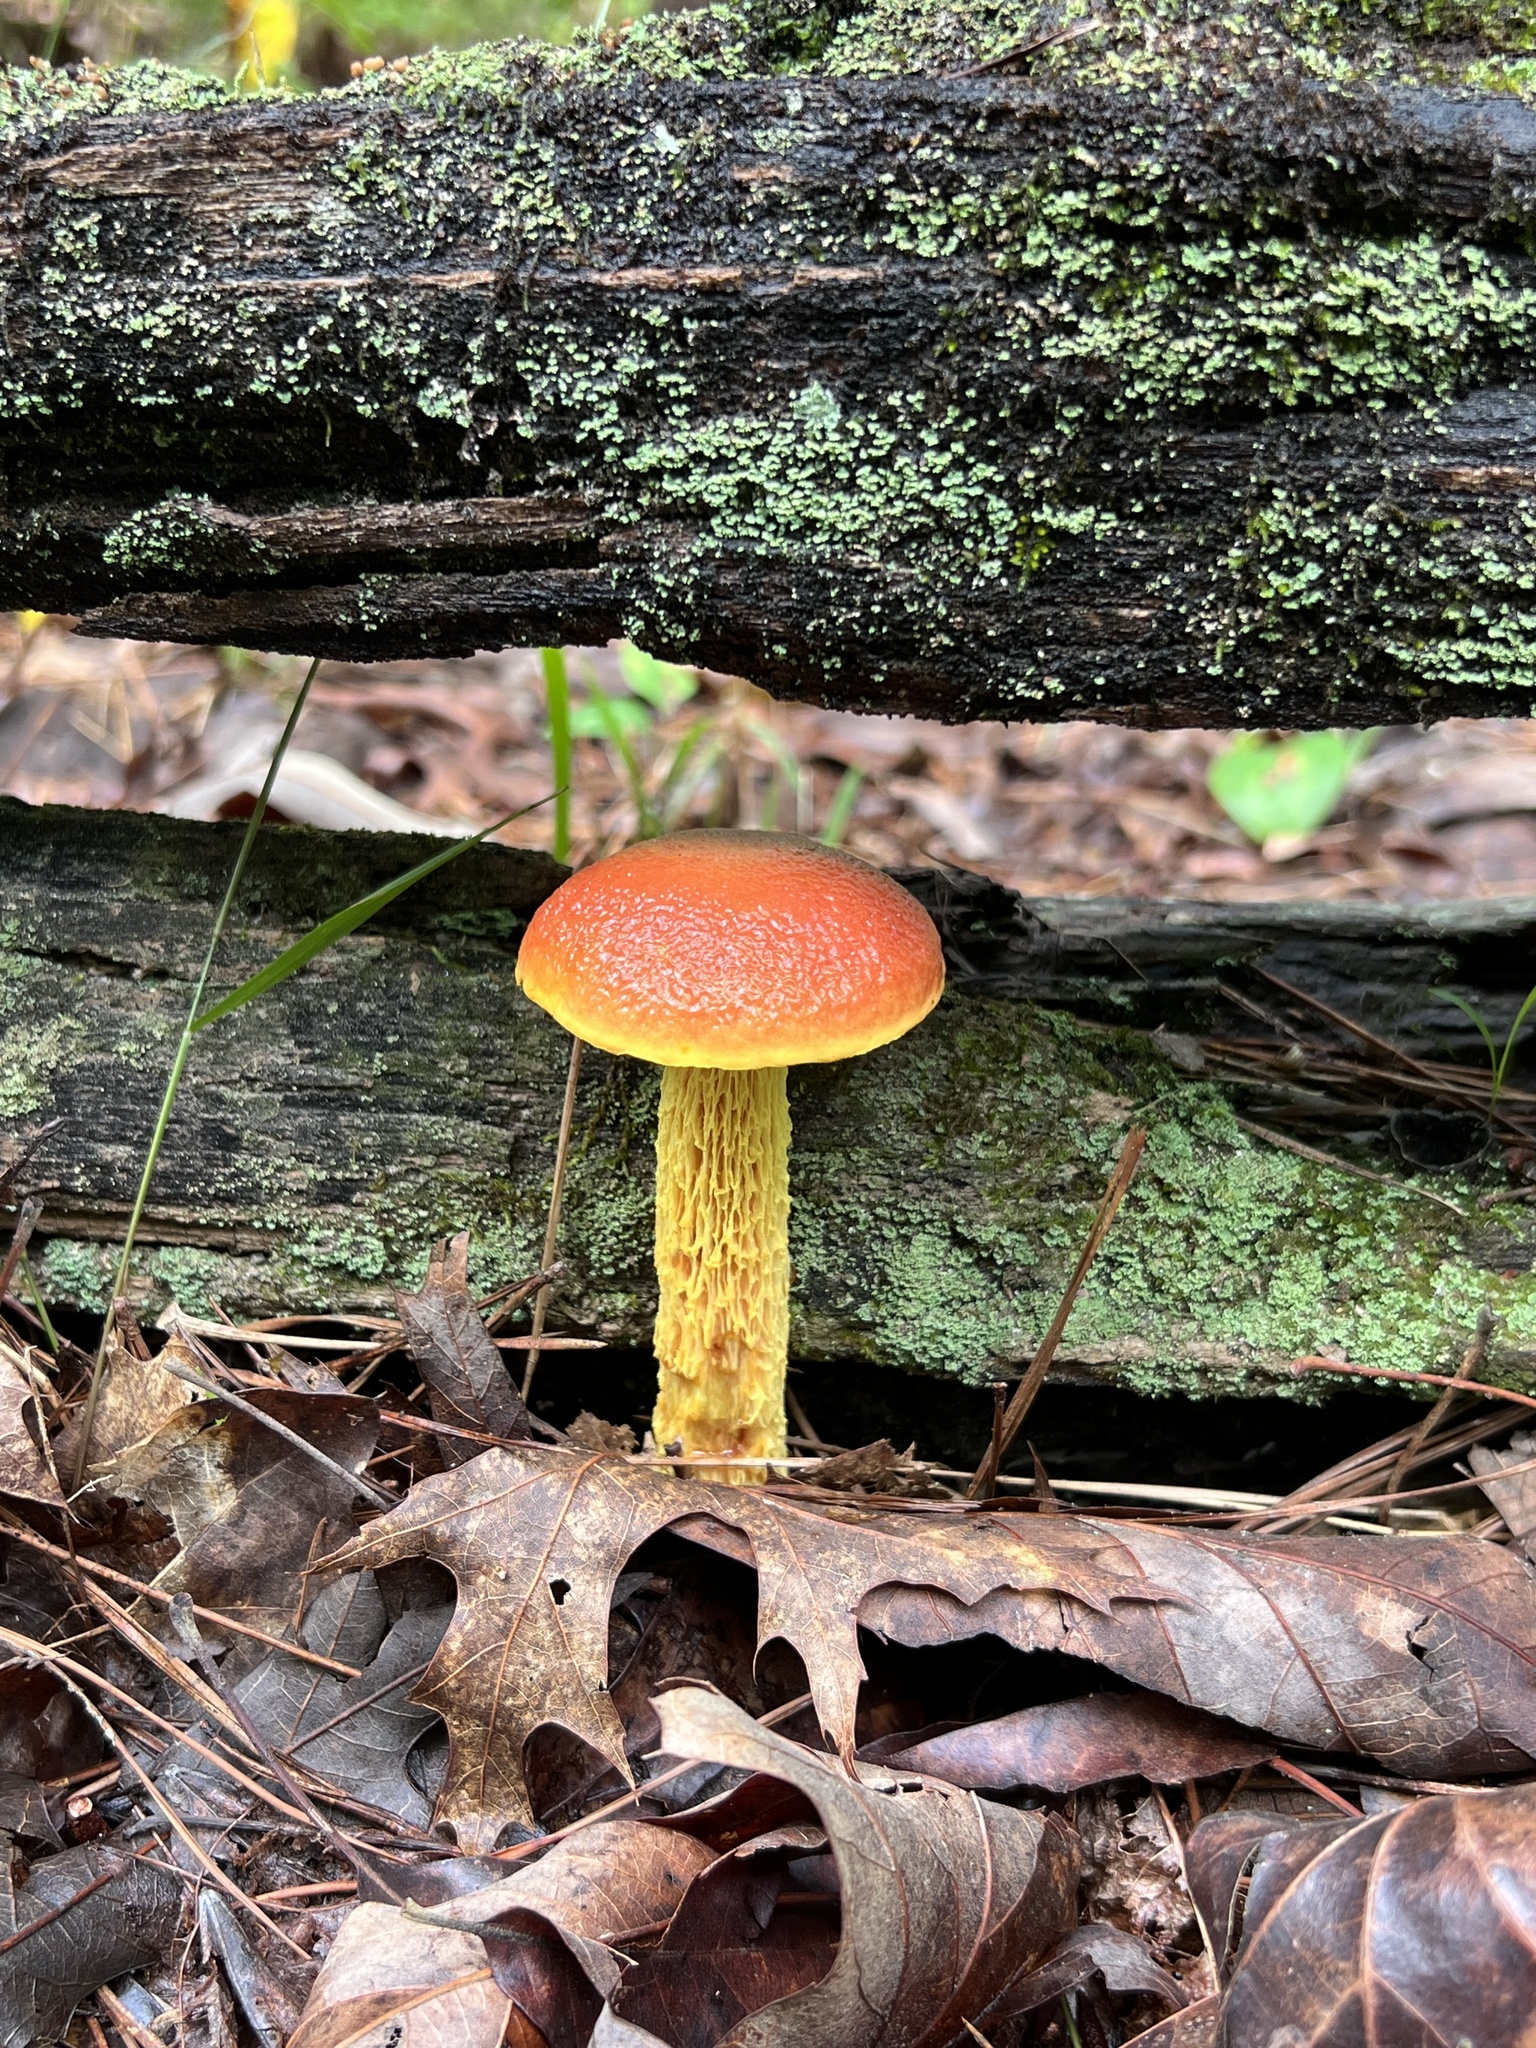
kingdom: Fungi
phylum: Basidiomycota
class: Agaricomycetes
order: Boletales
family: Boletaceae
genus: Aureoboletus
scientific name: Aureoboletus betula
